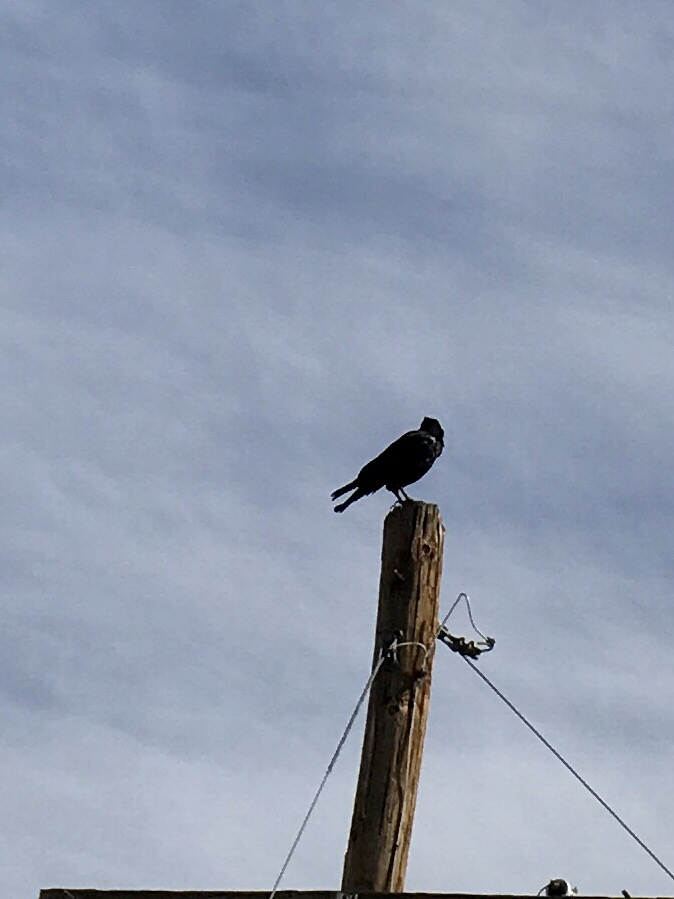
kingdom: Animalia
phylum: Chordata
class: Aves
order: Passeriformes
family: Corvidae
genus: Corvus
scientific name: Corvus corax
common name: Common raven
